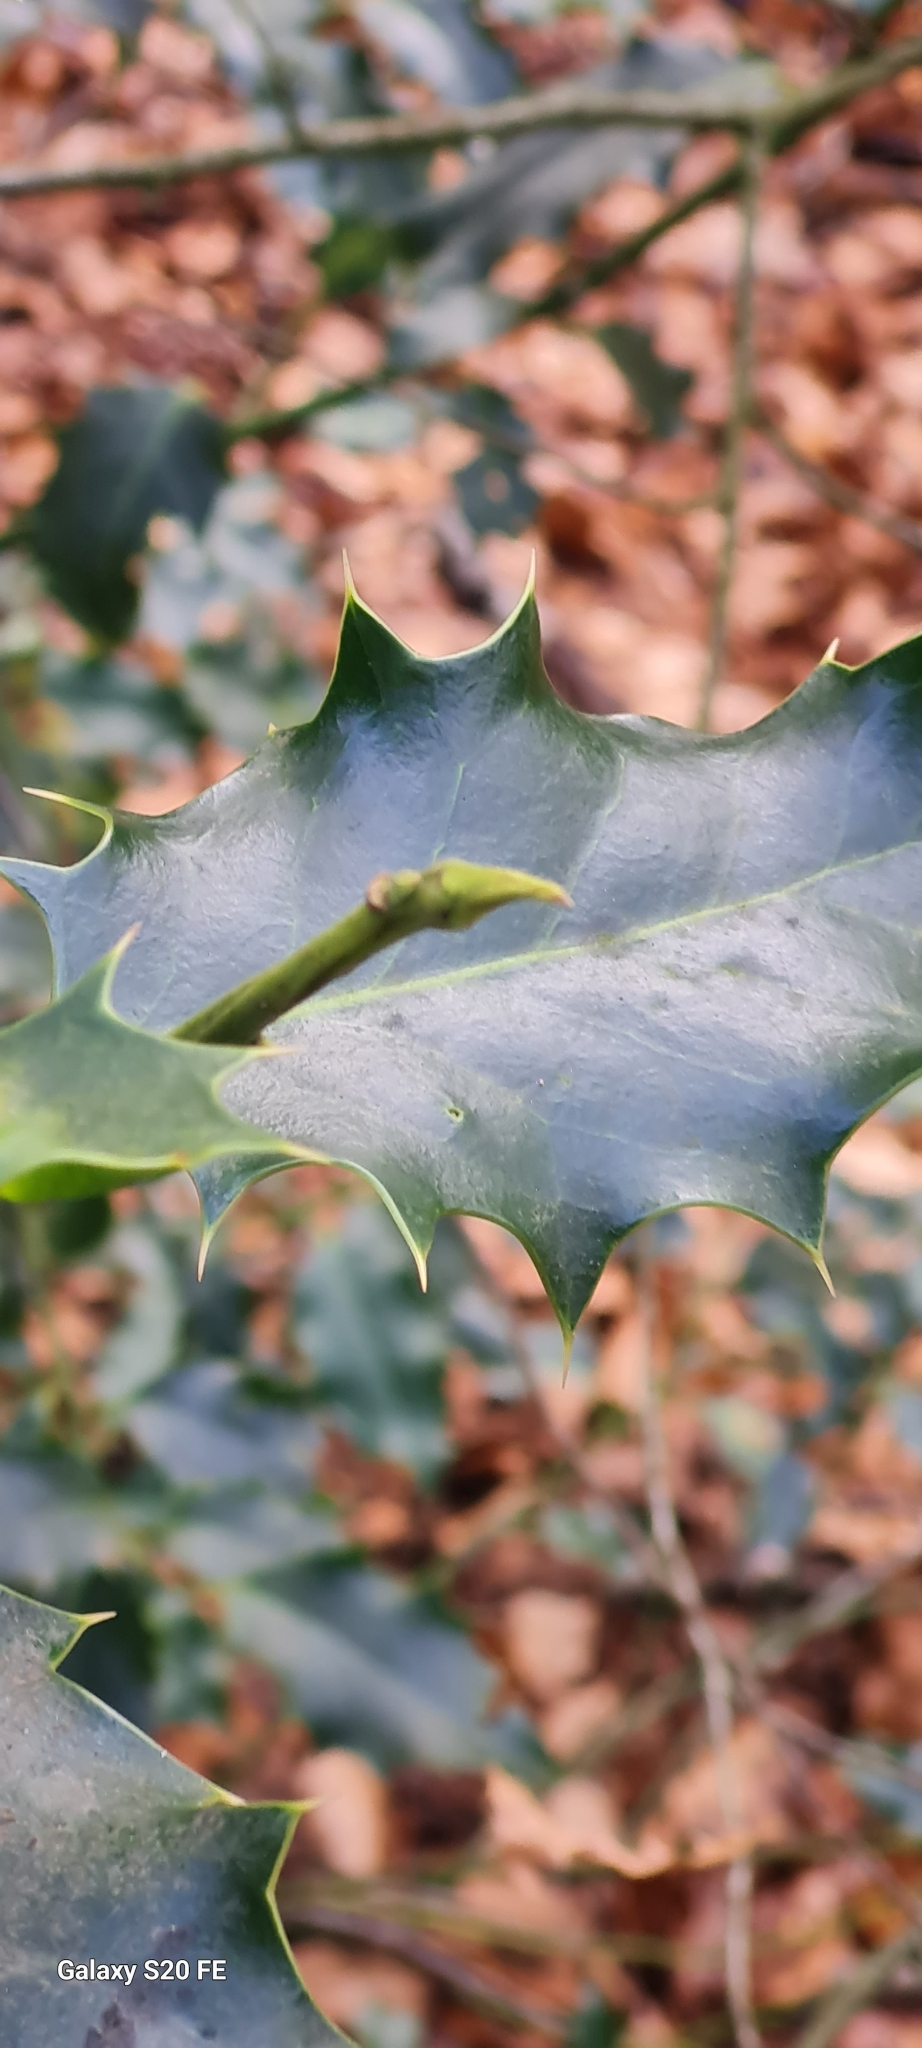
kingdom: Plantae
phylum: Tracheophyta
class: Magnoliopsida
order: Aquifoliales
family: Aquifoliaceae
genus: Ilex
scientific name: Ilex aquifolium
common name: English holly
